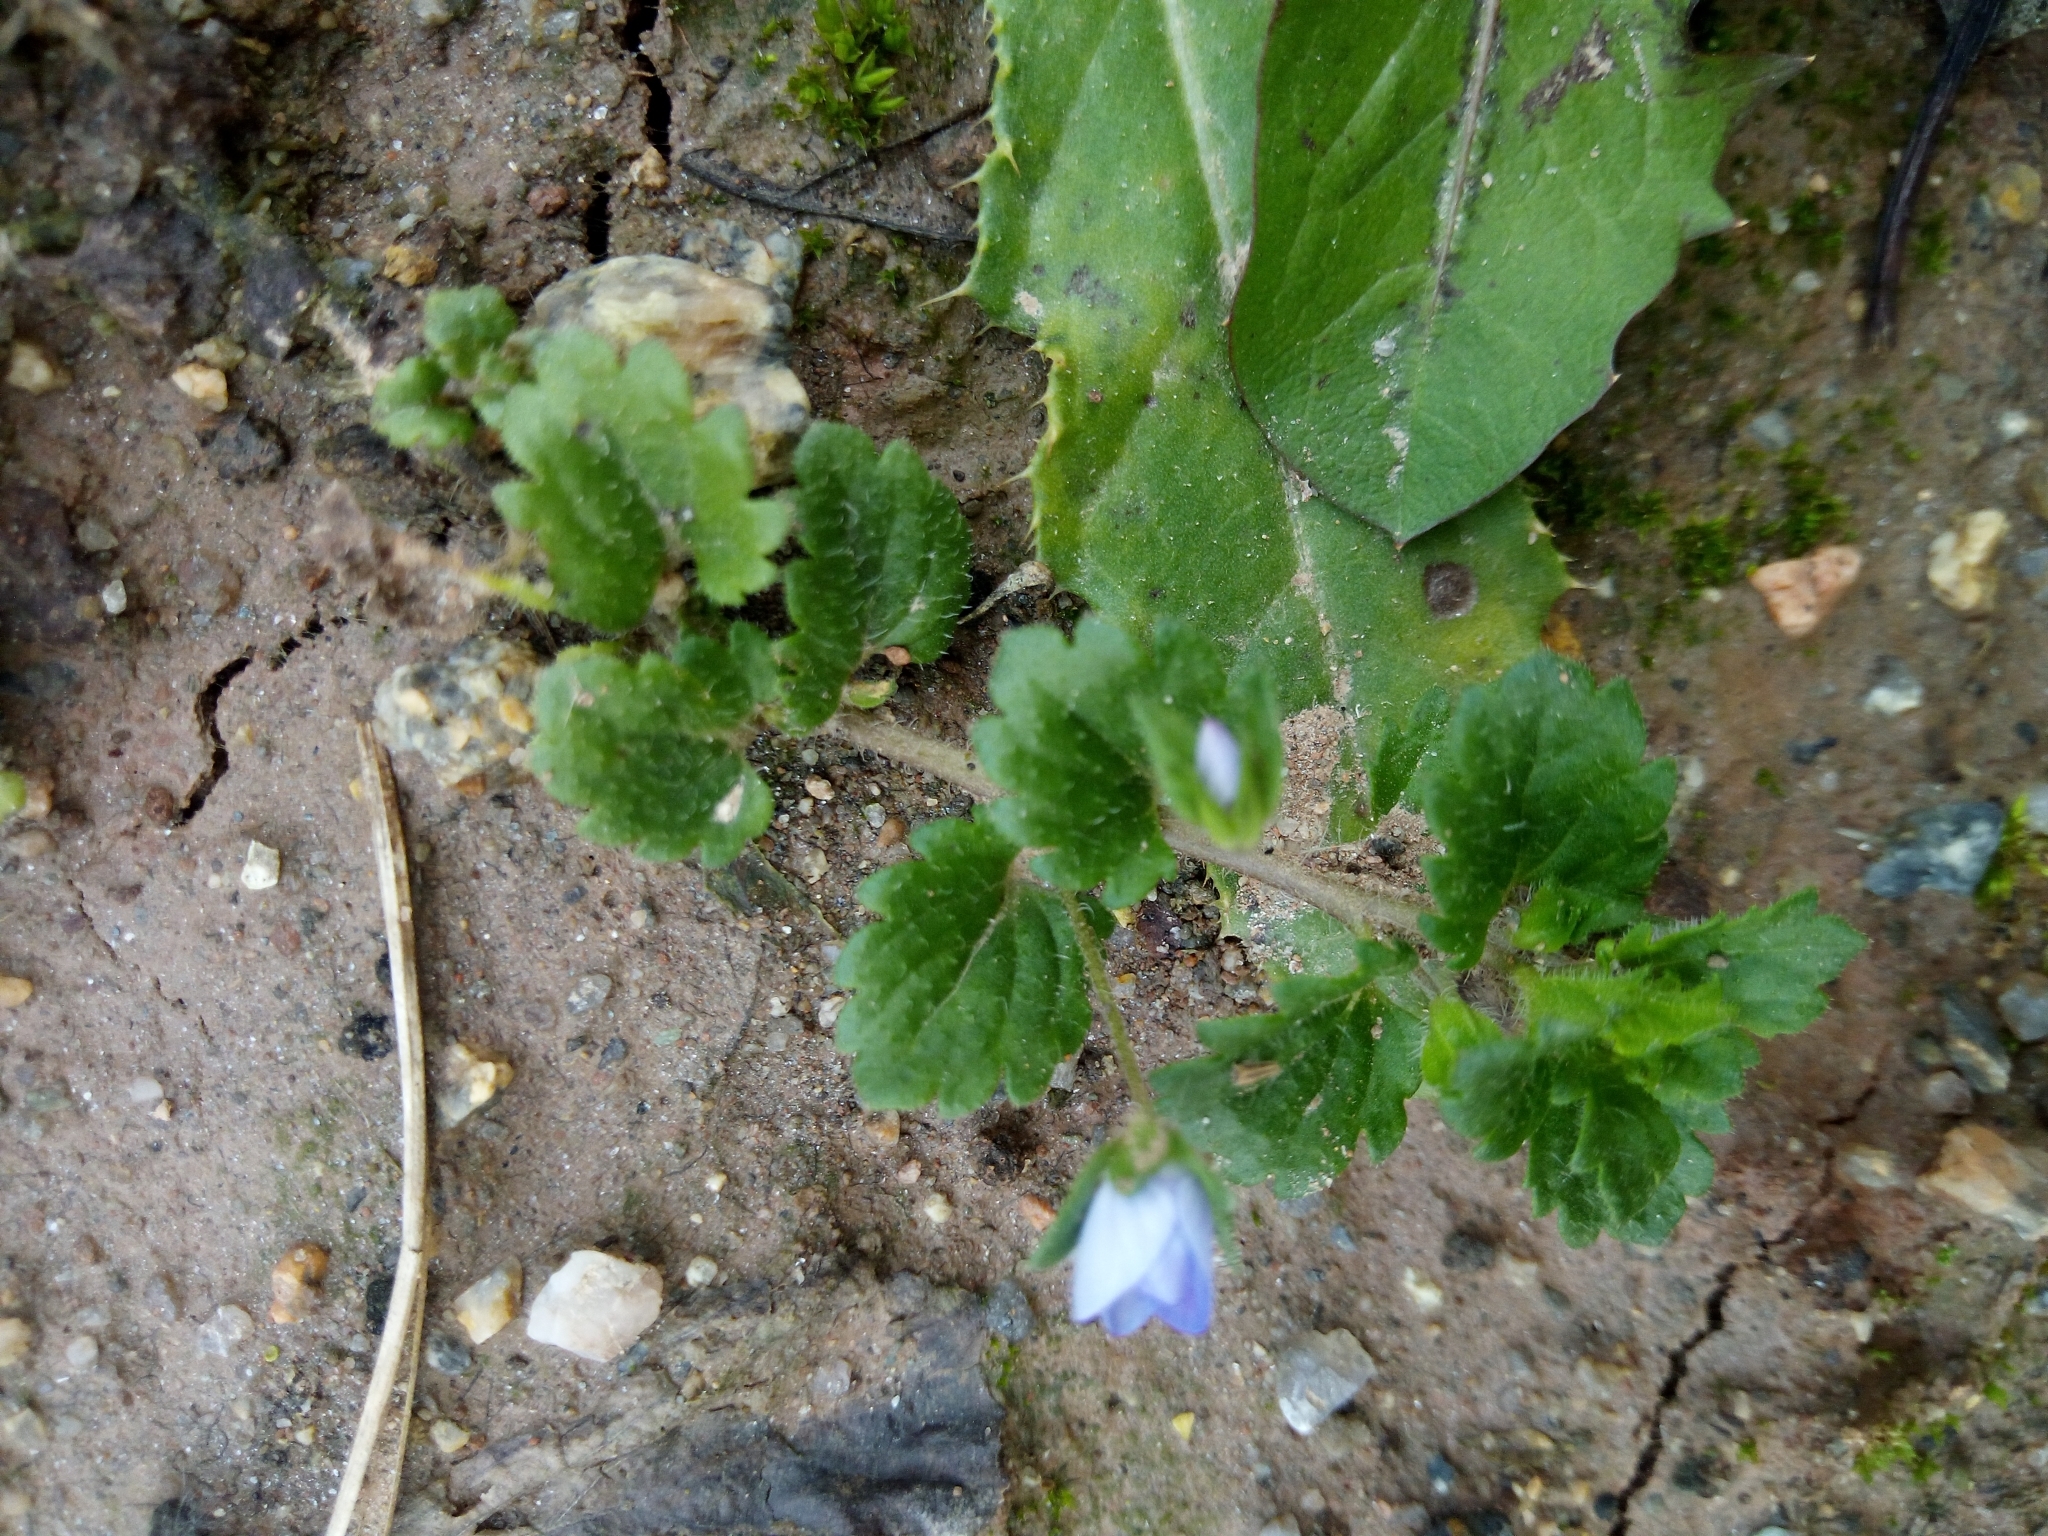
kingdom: Plantae
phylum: Tracheophyta
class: Magnoliopsida
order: Lamiales
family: Plantaginaceae
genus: Veronica
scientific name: Veronica persica
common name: Common field-speedwell
